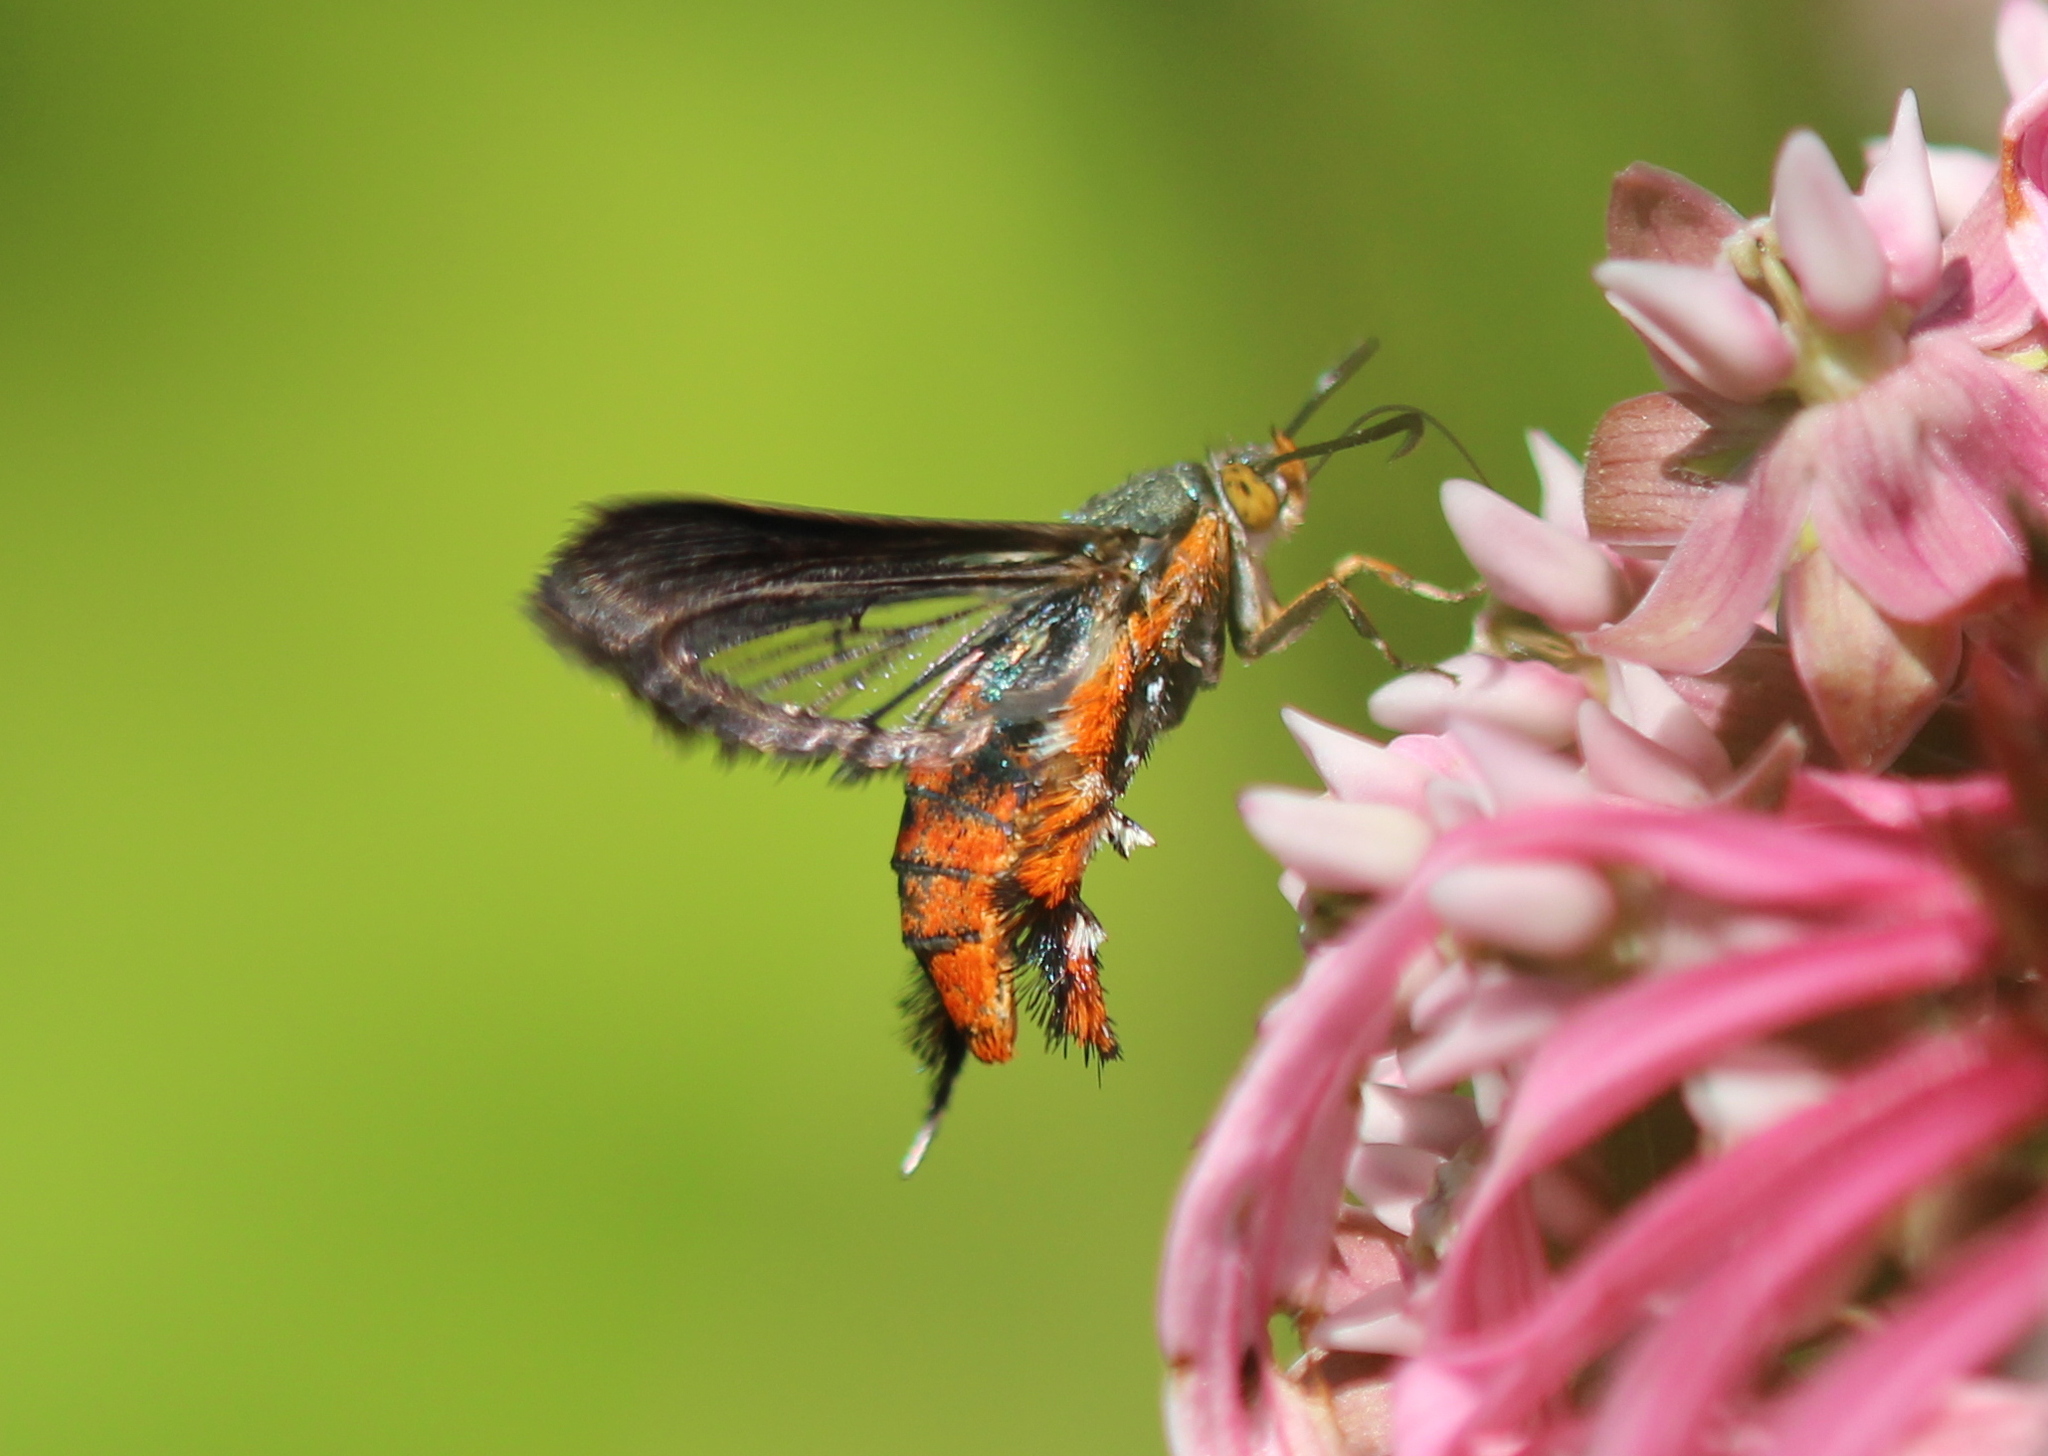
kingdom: Animalia
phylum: Arthropoda
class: Insecta
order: Lepidoptera
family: Sesiidae
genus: Eichlinia
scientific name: Eichlinia cucurbitae
